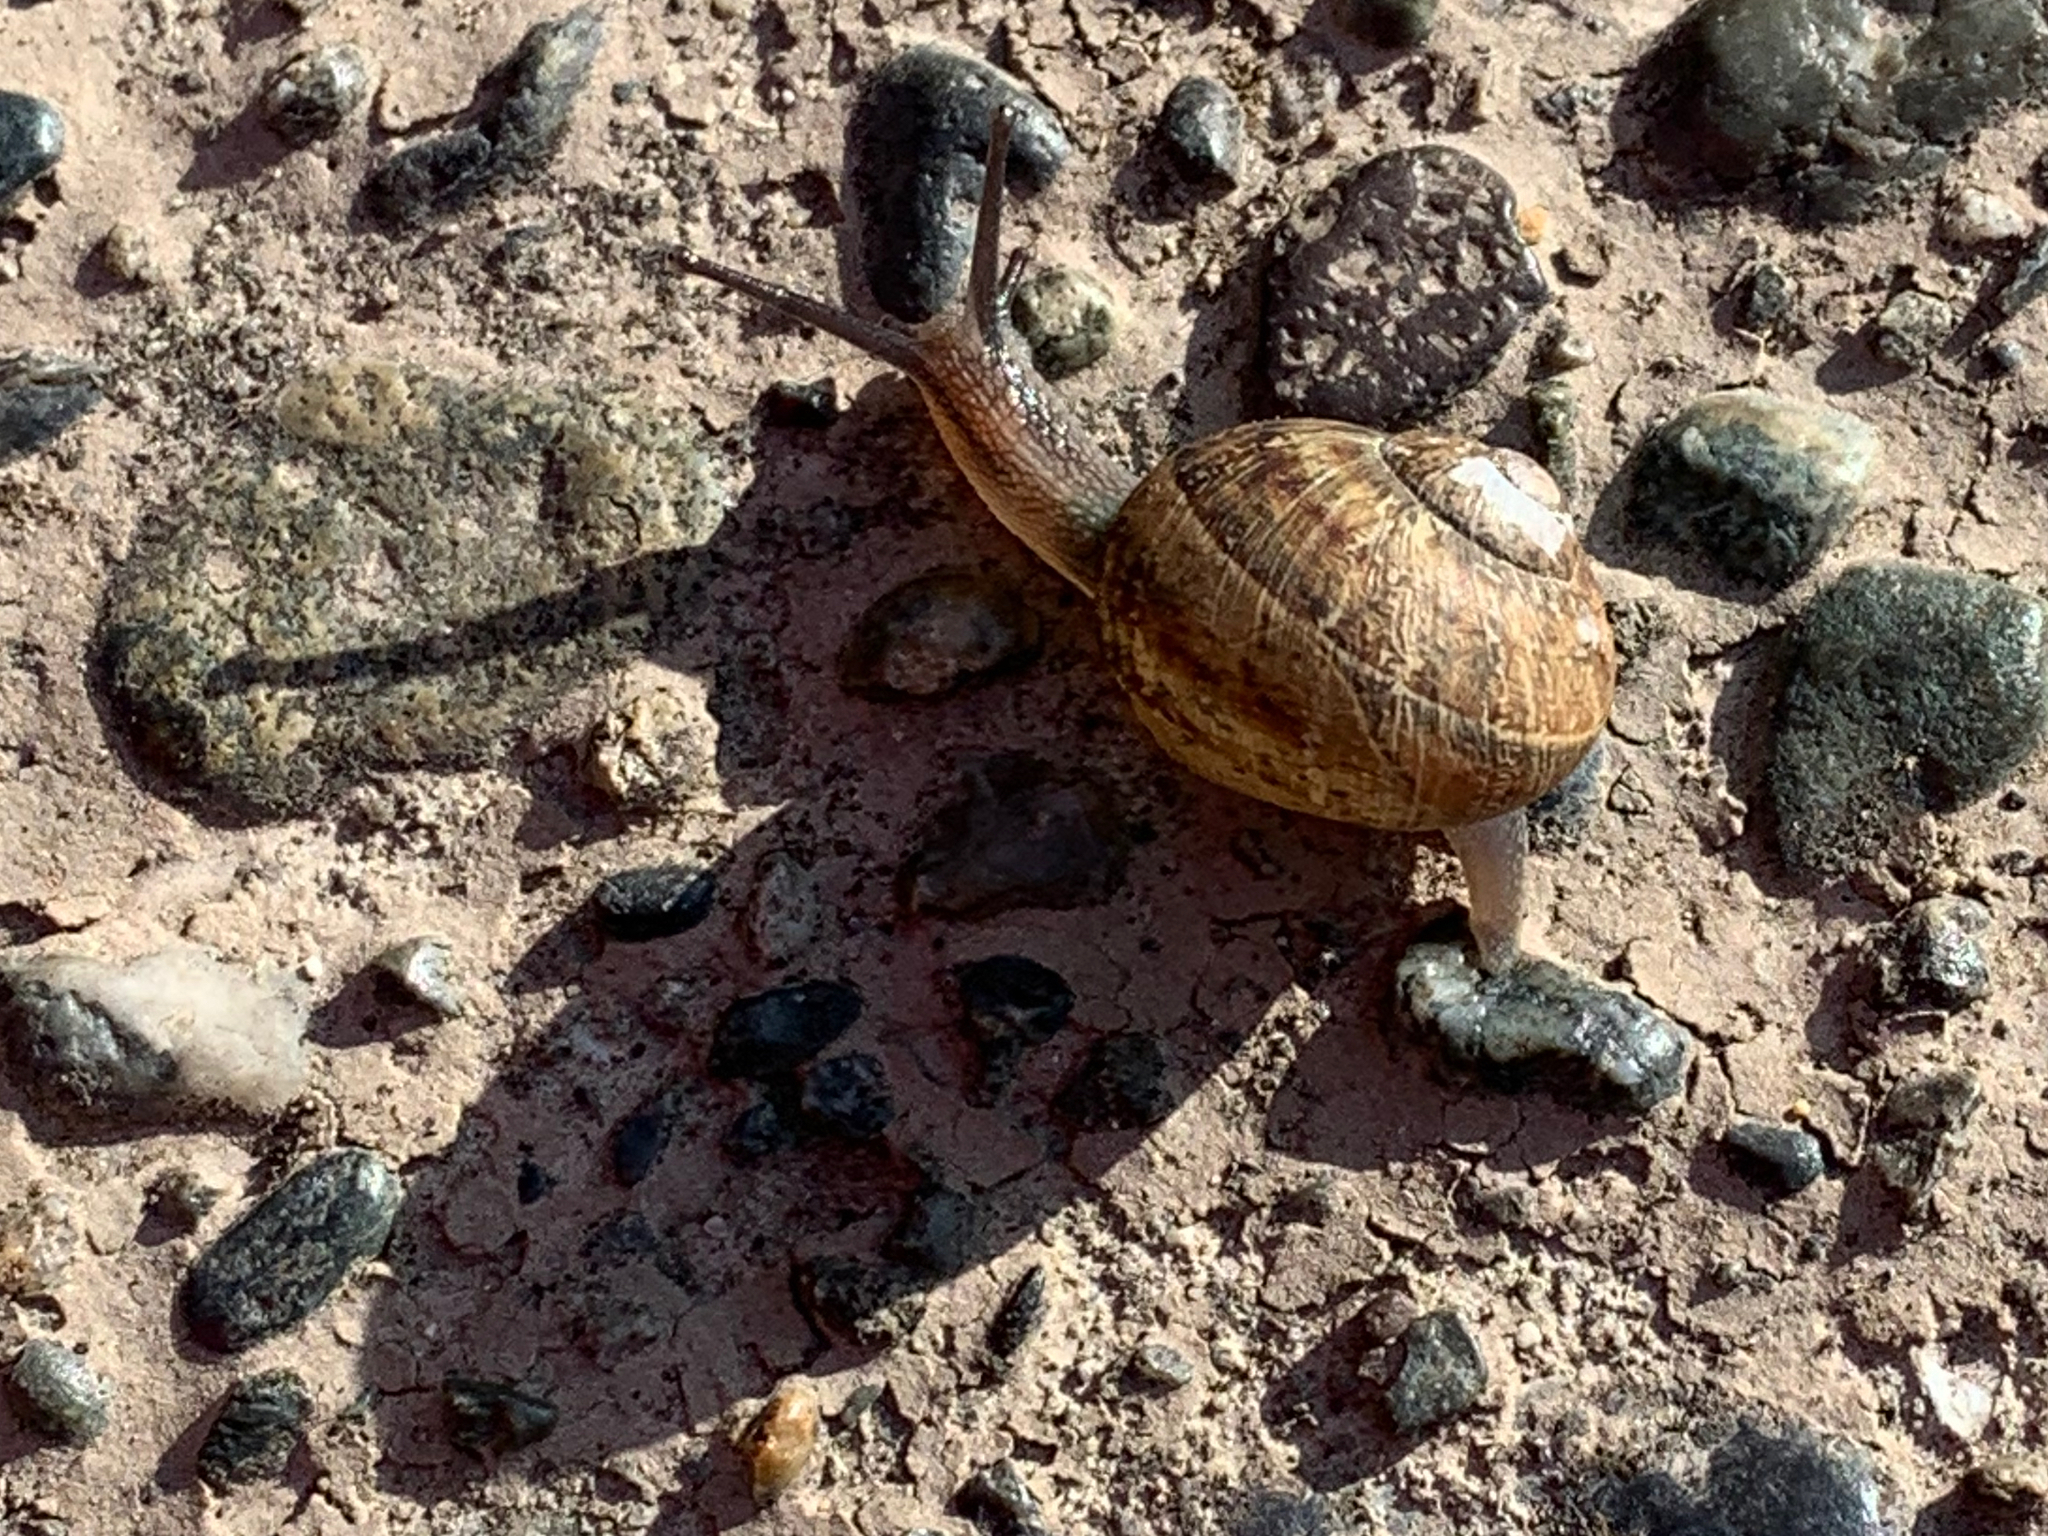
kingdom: Animalia
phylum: Mollusca
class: Gastropoda
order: Stylommatophora
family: Helicidae
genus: Cornu
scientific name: Cornu aspersum
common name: Brown garden snail
